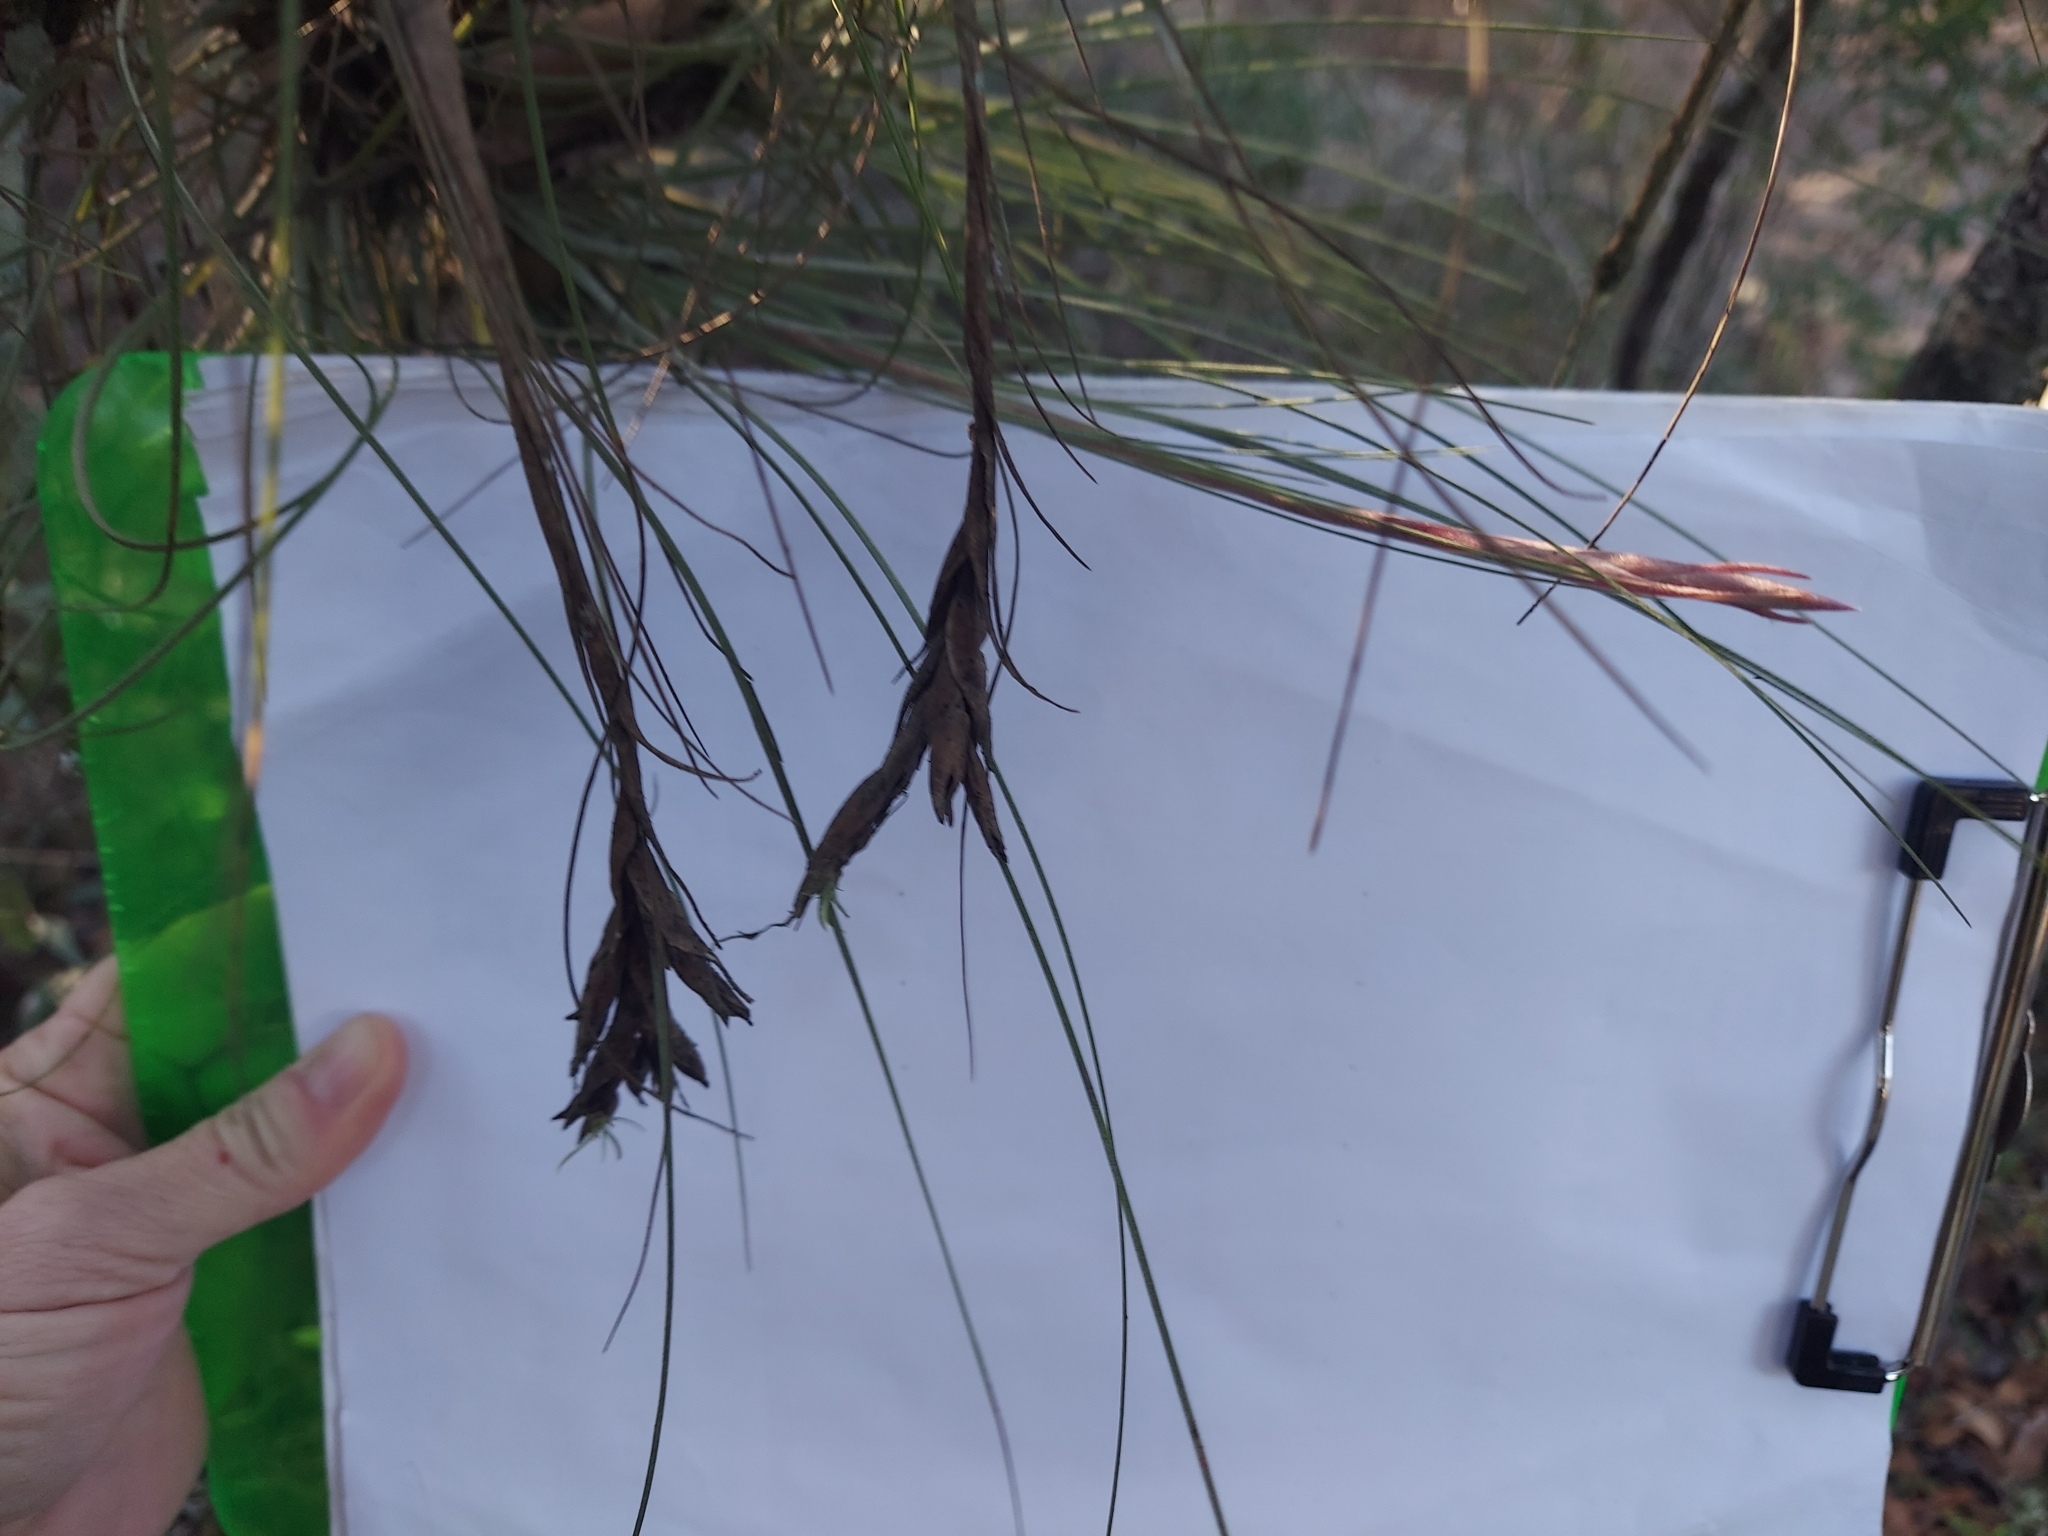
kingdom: Plantae
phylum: Tracheophyta
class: Liliopsida
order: Poales
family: Bromeliaceae
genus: Tillandsia
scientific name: Tillandsia bartramii
